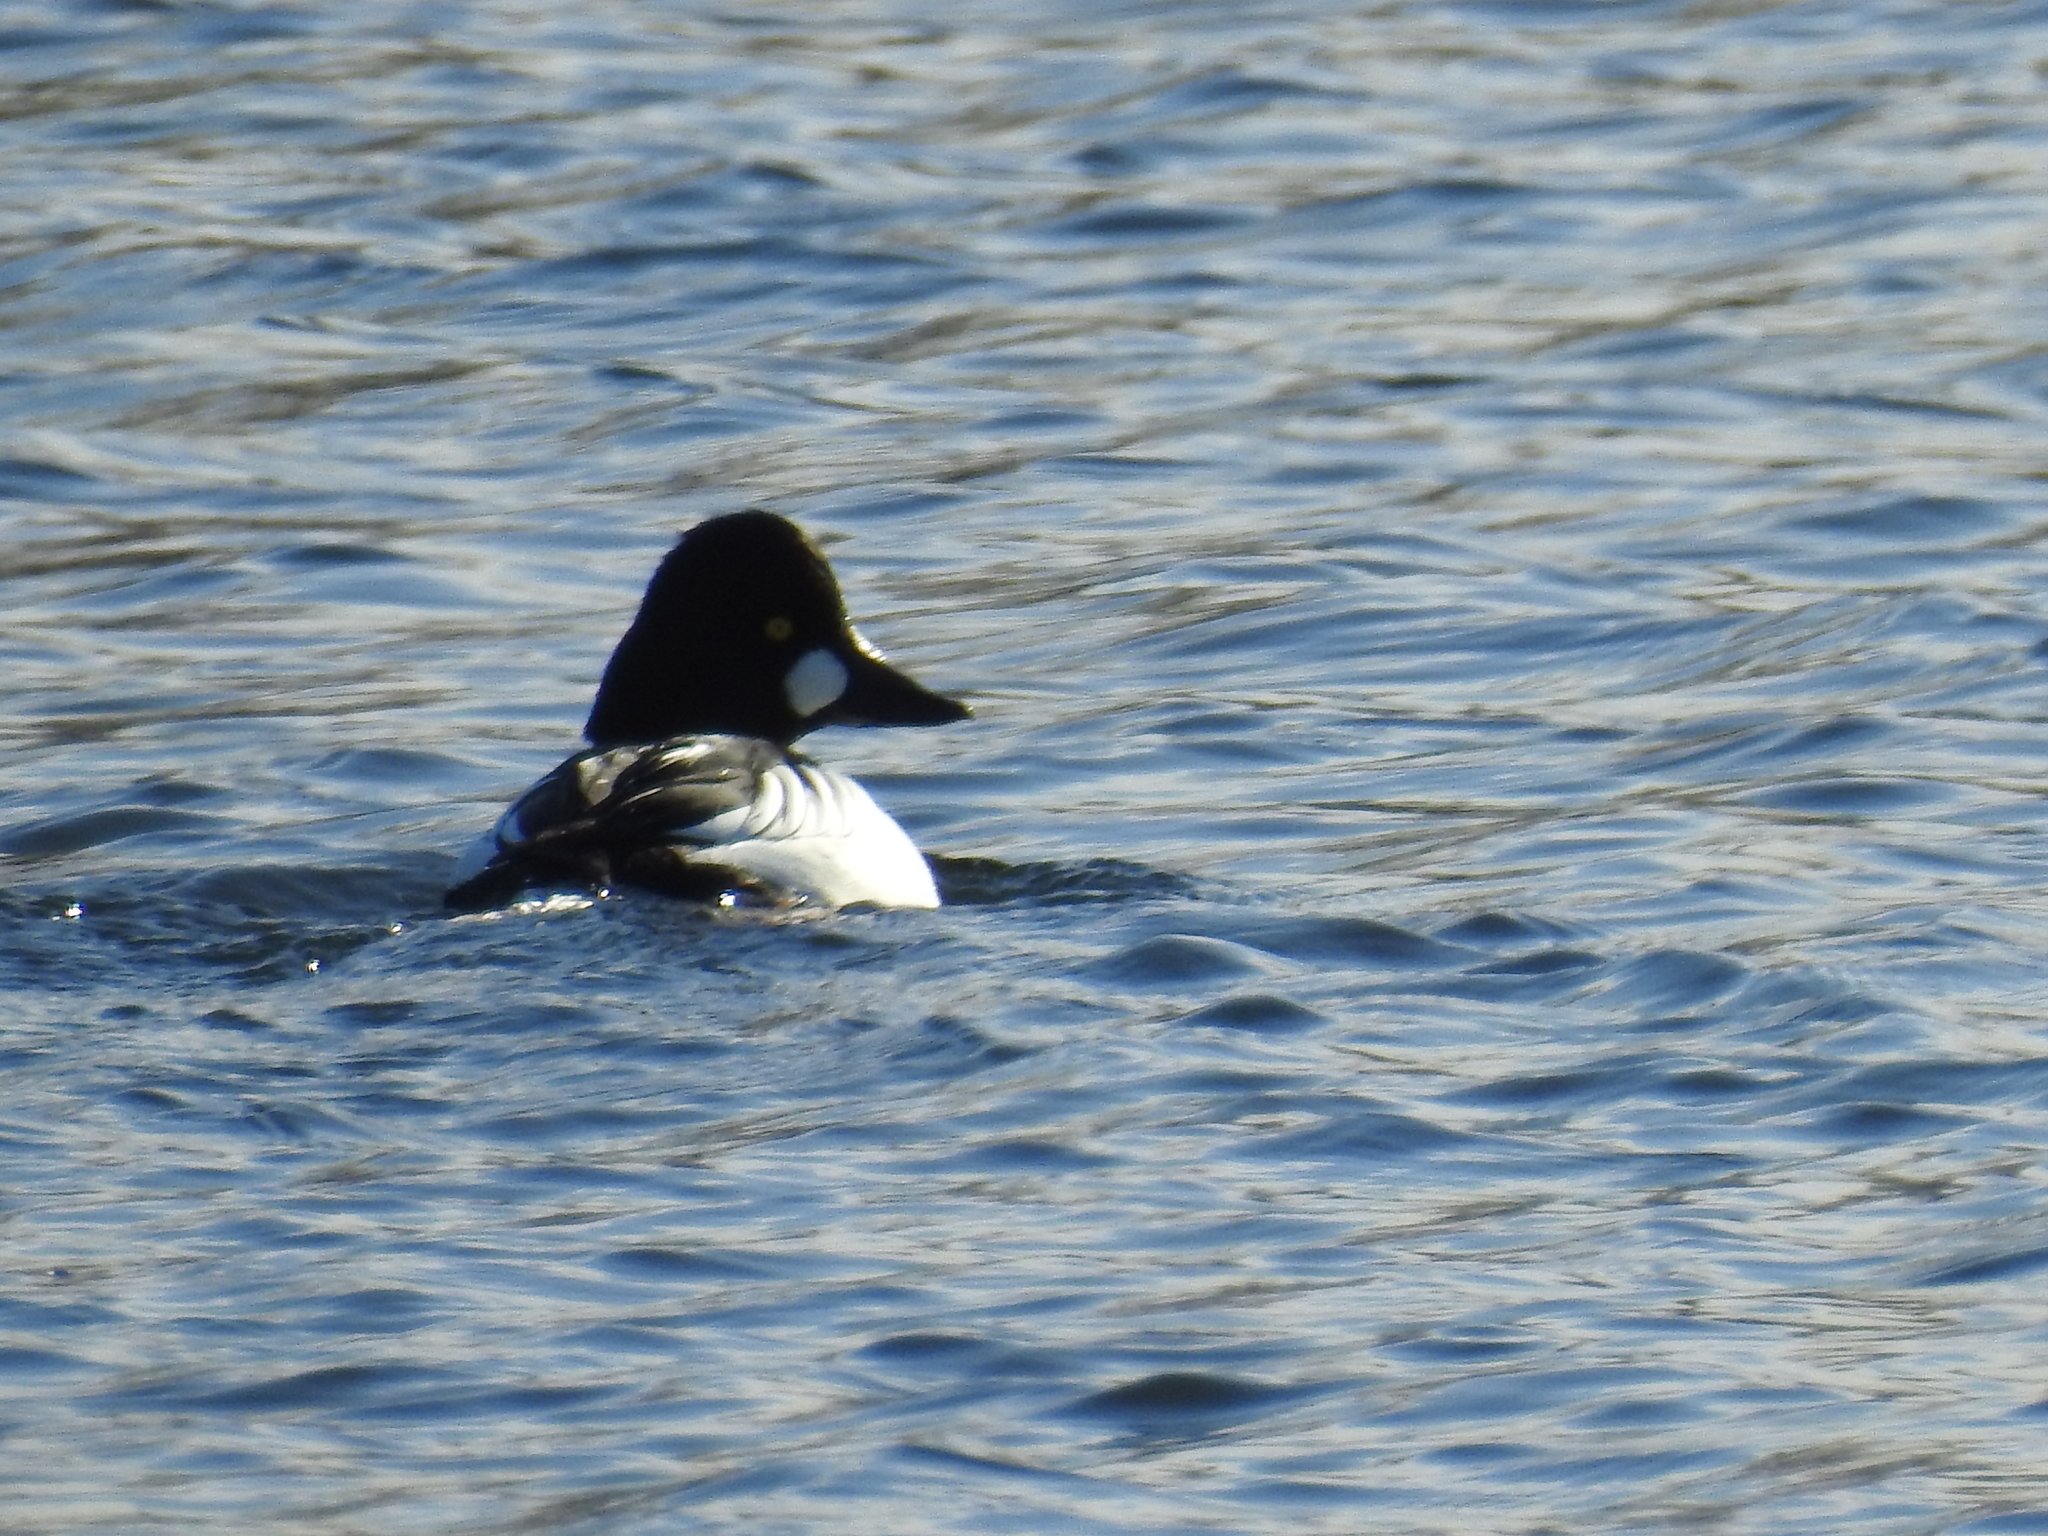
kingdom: Animalia
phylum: Chordata
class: Aves
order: Anseriformes
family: Anatidae
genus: Bucephala
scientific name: Bucephala clangula
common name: Common goldeneye
